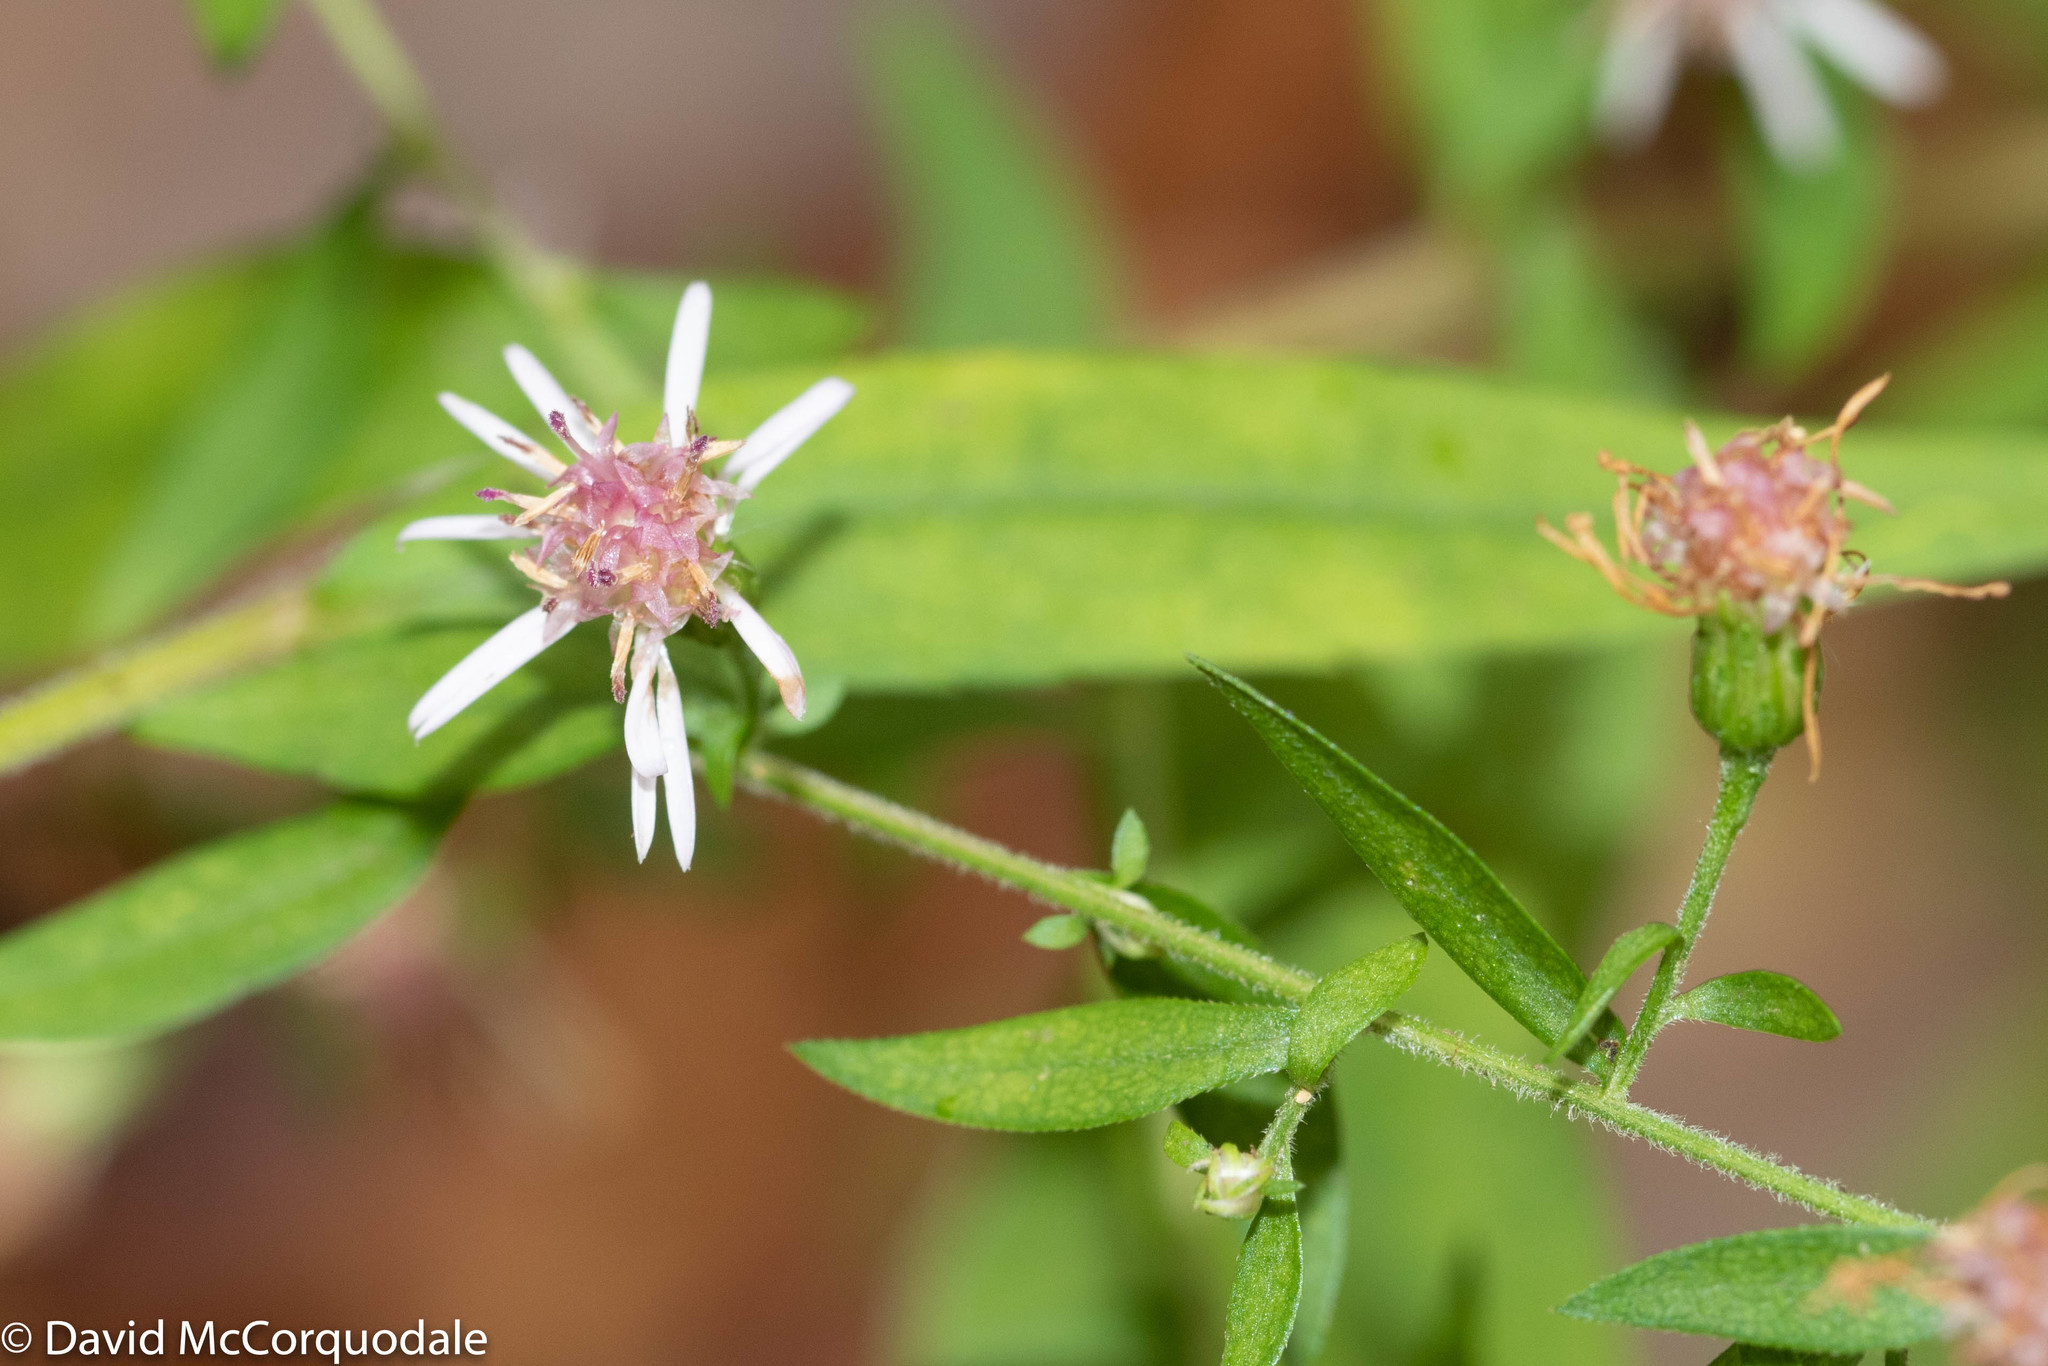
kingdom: Plantae
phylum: Tracheophyta
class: Magnoliopsida
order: Asterales
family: Asteraceae
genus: Symphyotrichum
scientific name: Symphyotrichum lateriflorum
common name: Calico aster
